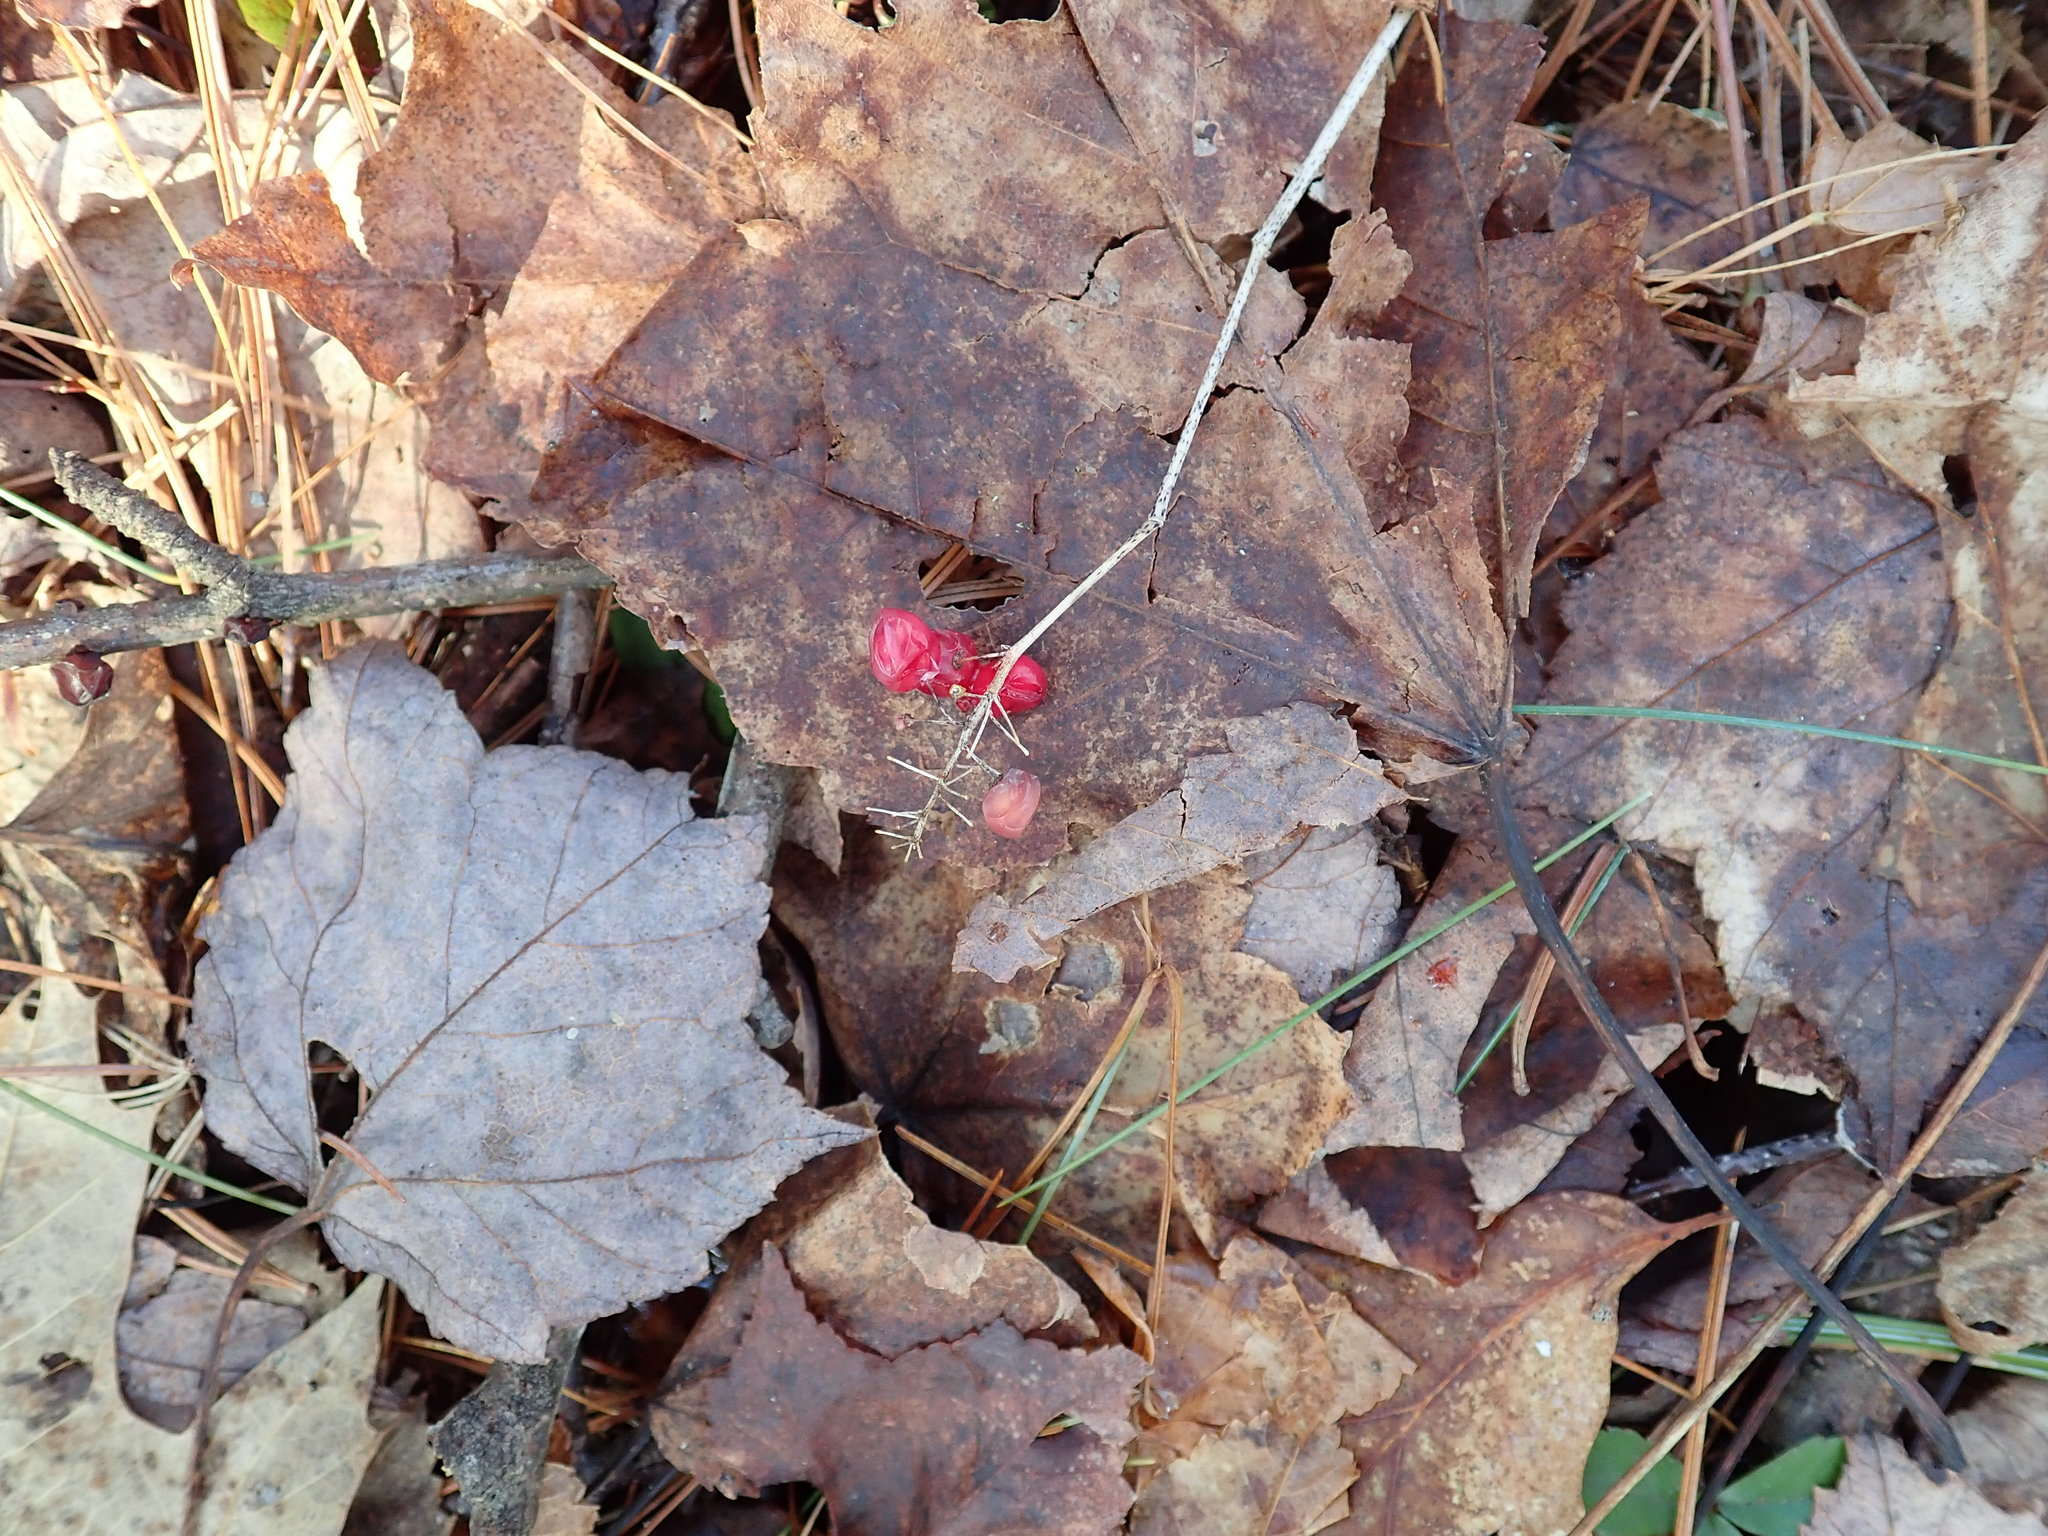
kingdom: Plantae
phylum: Tracheophyta
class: Liliopsida
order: Asparagales
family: Asparagaceae
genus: Maianthemum
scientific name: Maianthemum canadense
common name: False lily-of-the-valley
